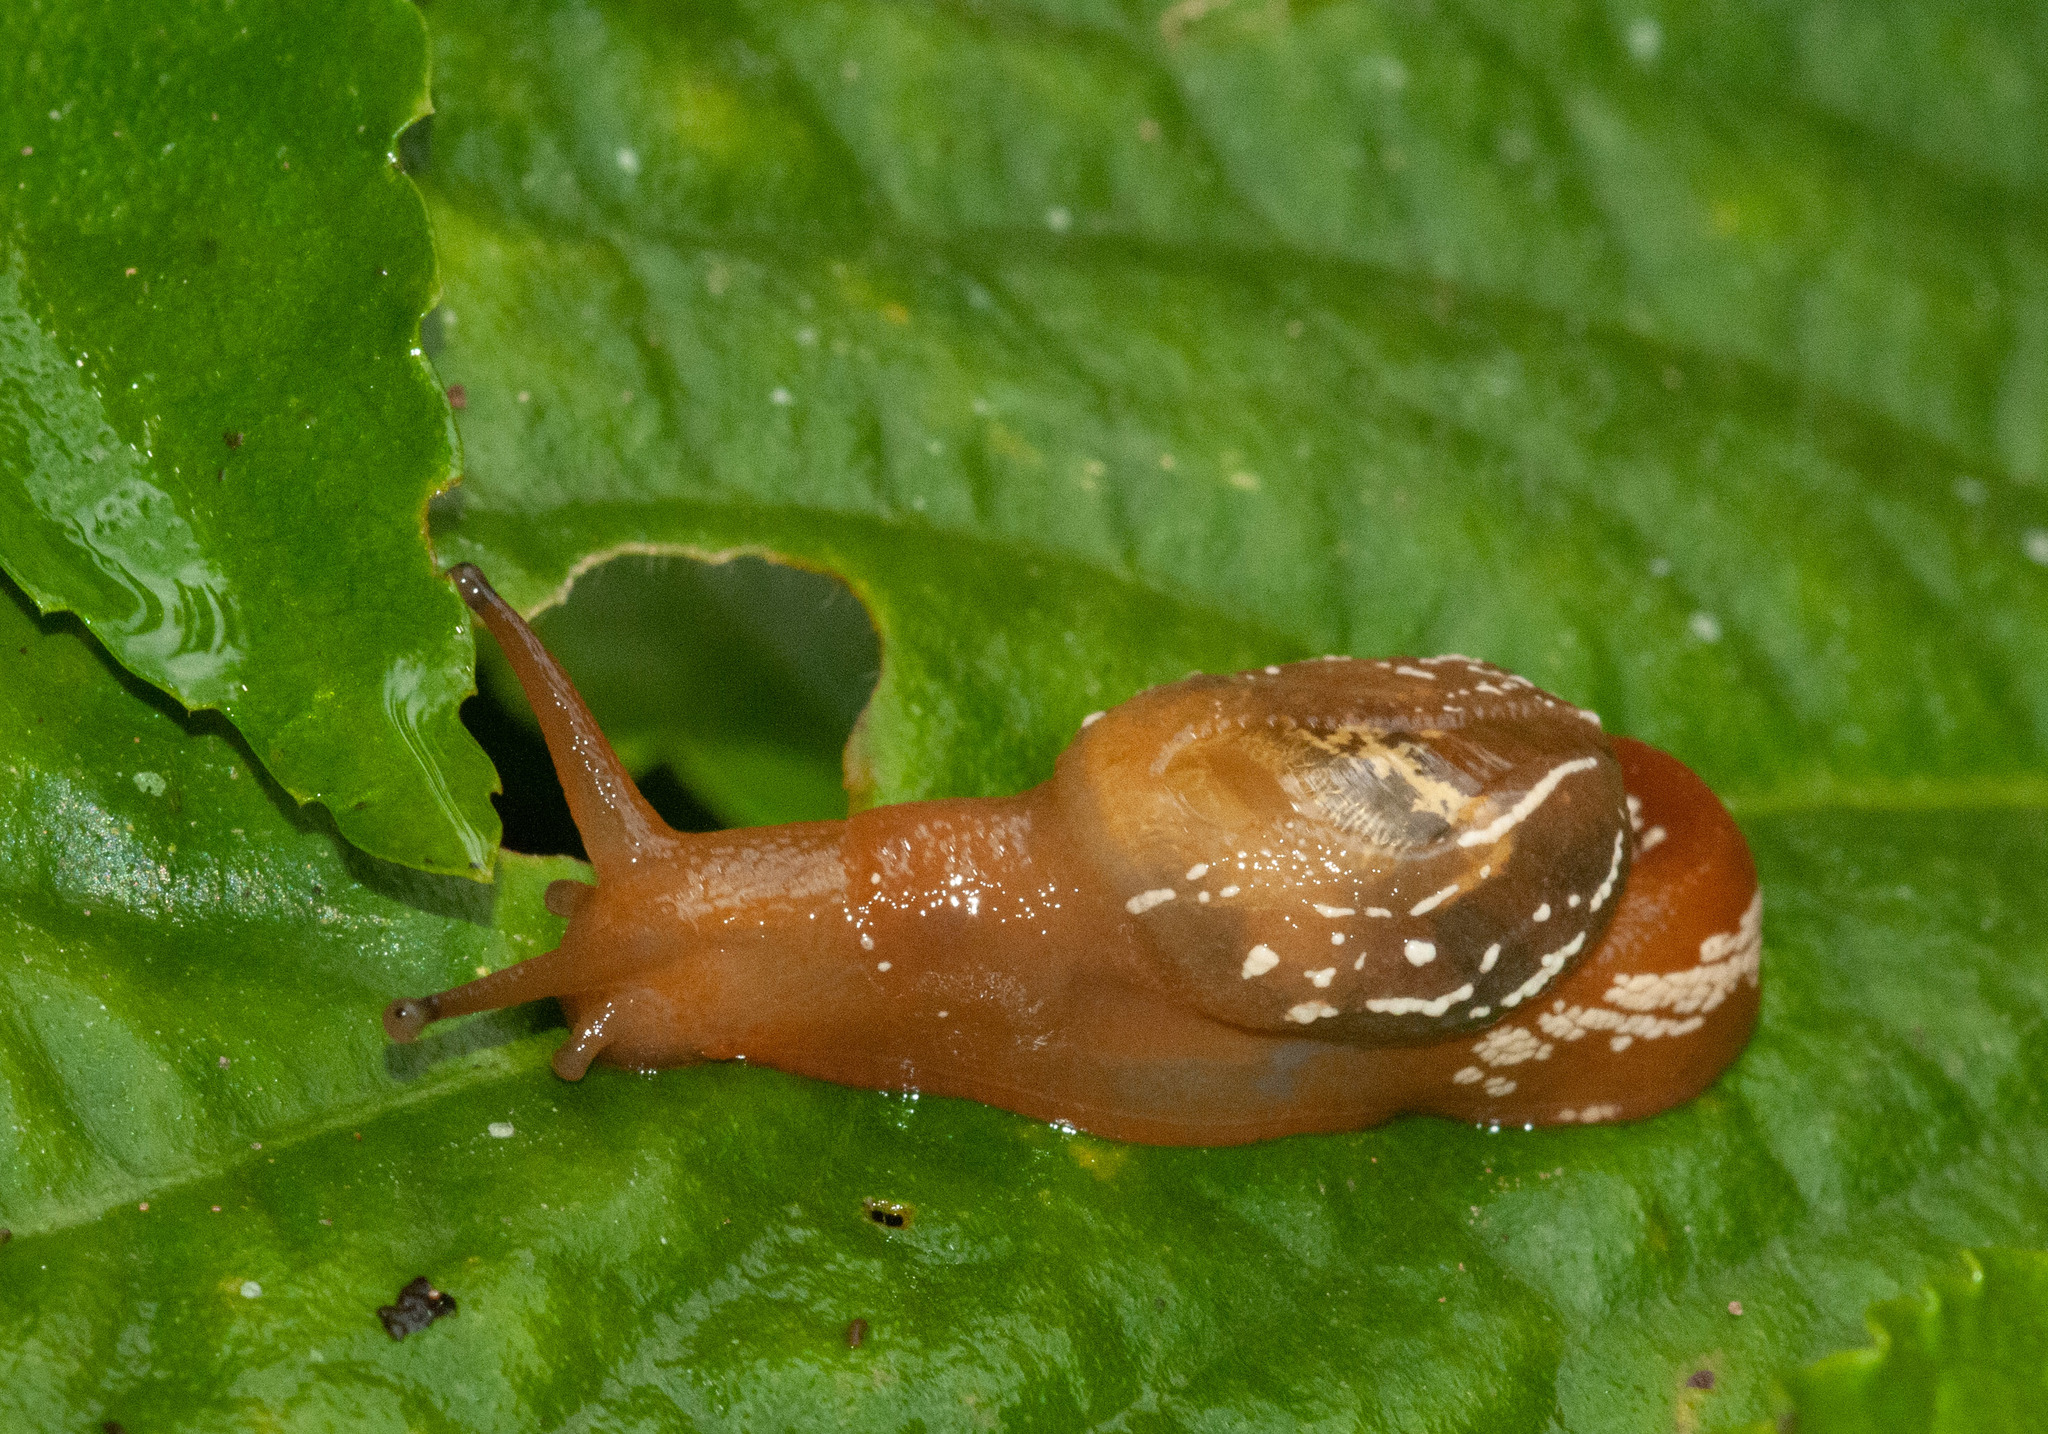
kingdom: Animalia
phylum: Mollusca
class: Gastropoda
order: Stylommatophora
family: Helicarionidae
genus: Cucullarion
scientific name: Cucullarion albimaculosus
